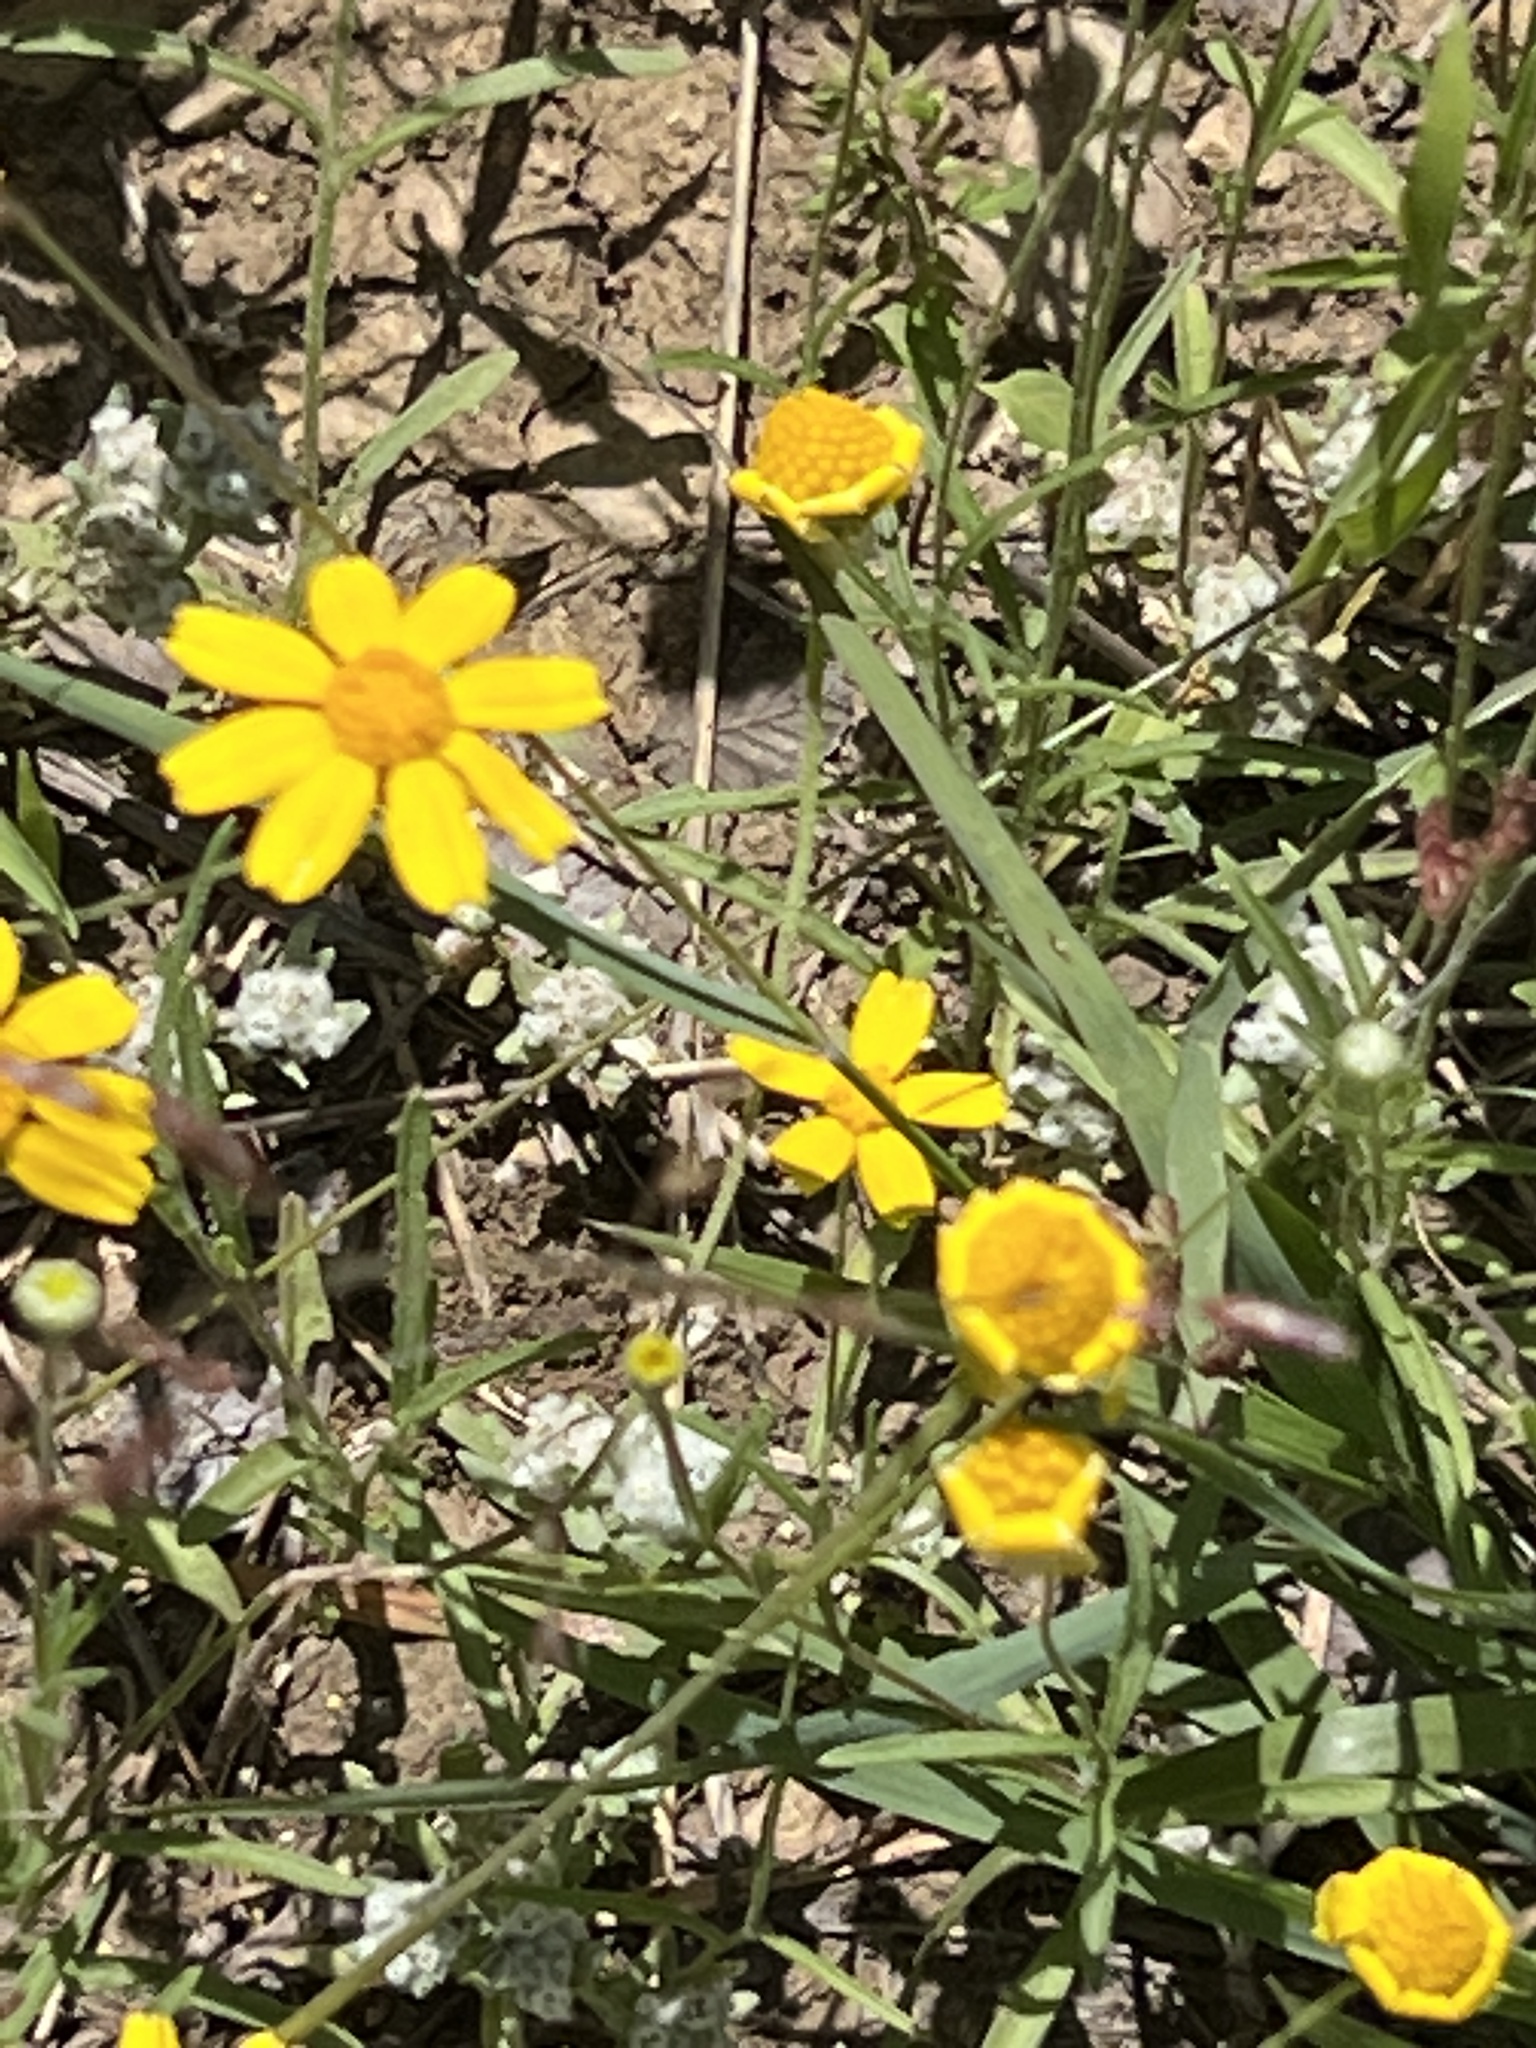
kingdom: Plantae
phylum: Tracheophyta
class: Magnoliopsida
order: Asterales
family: Asteraceae
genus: Tetraneuris
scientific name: Tetraneuris linearifolia
